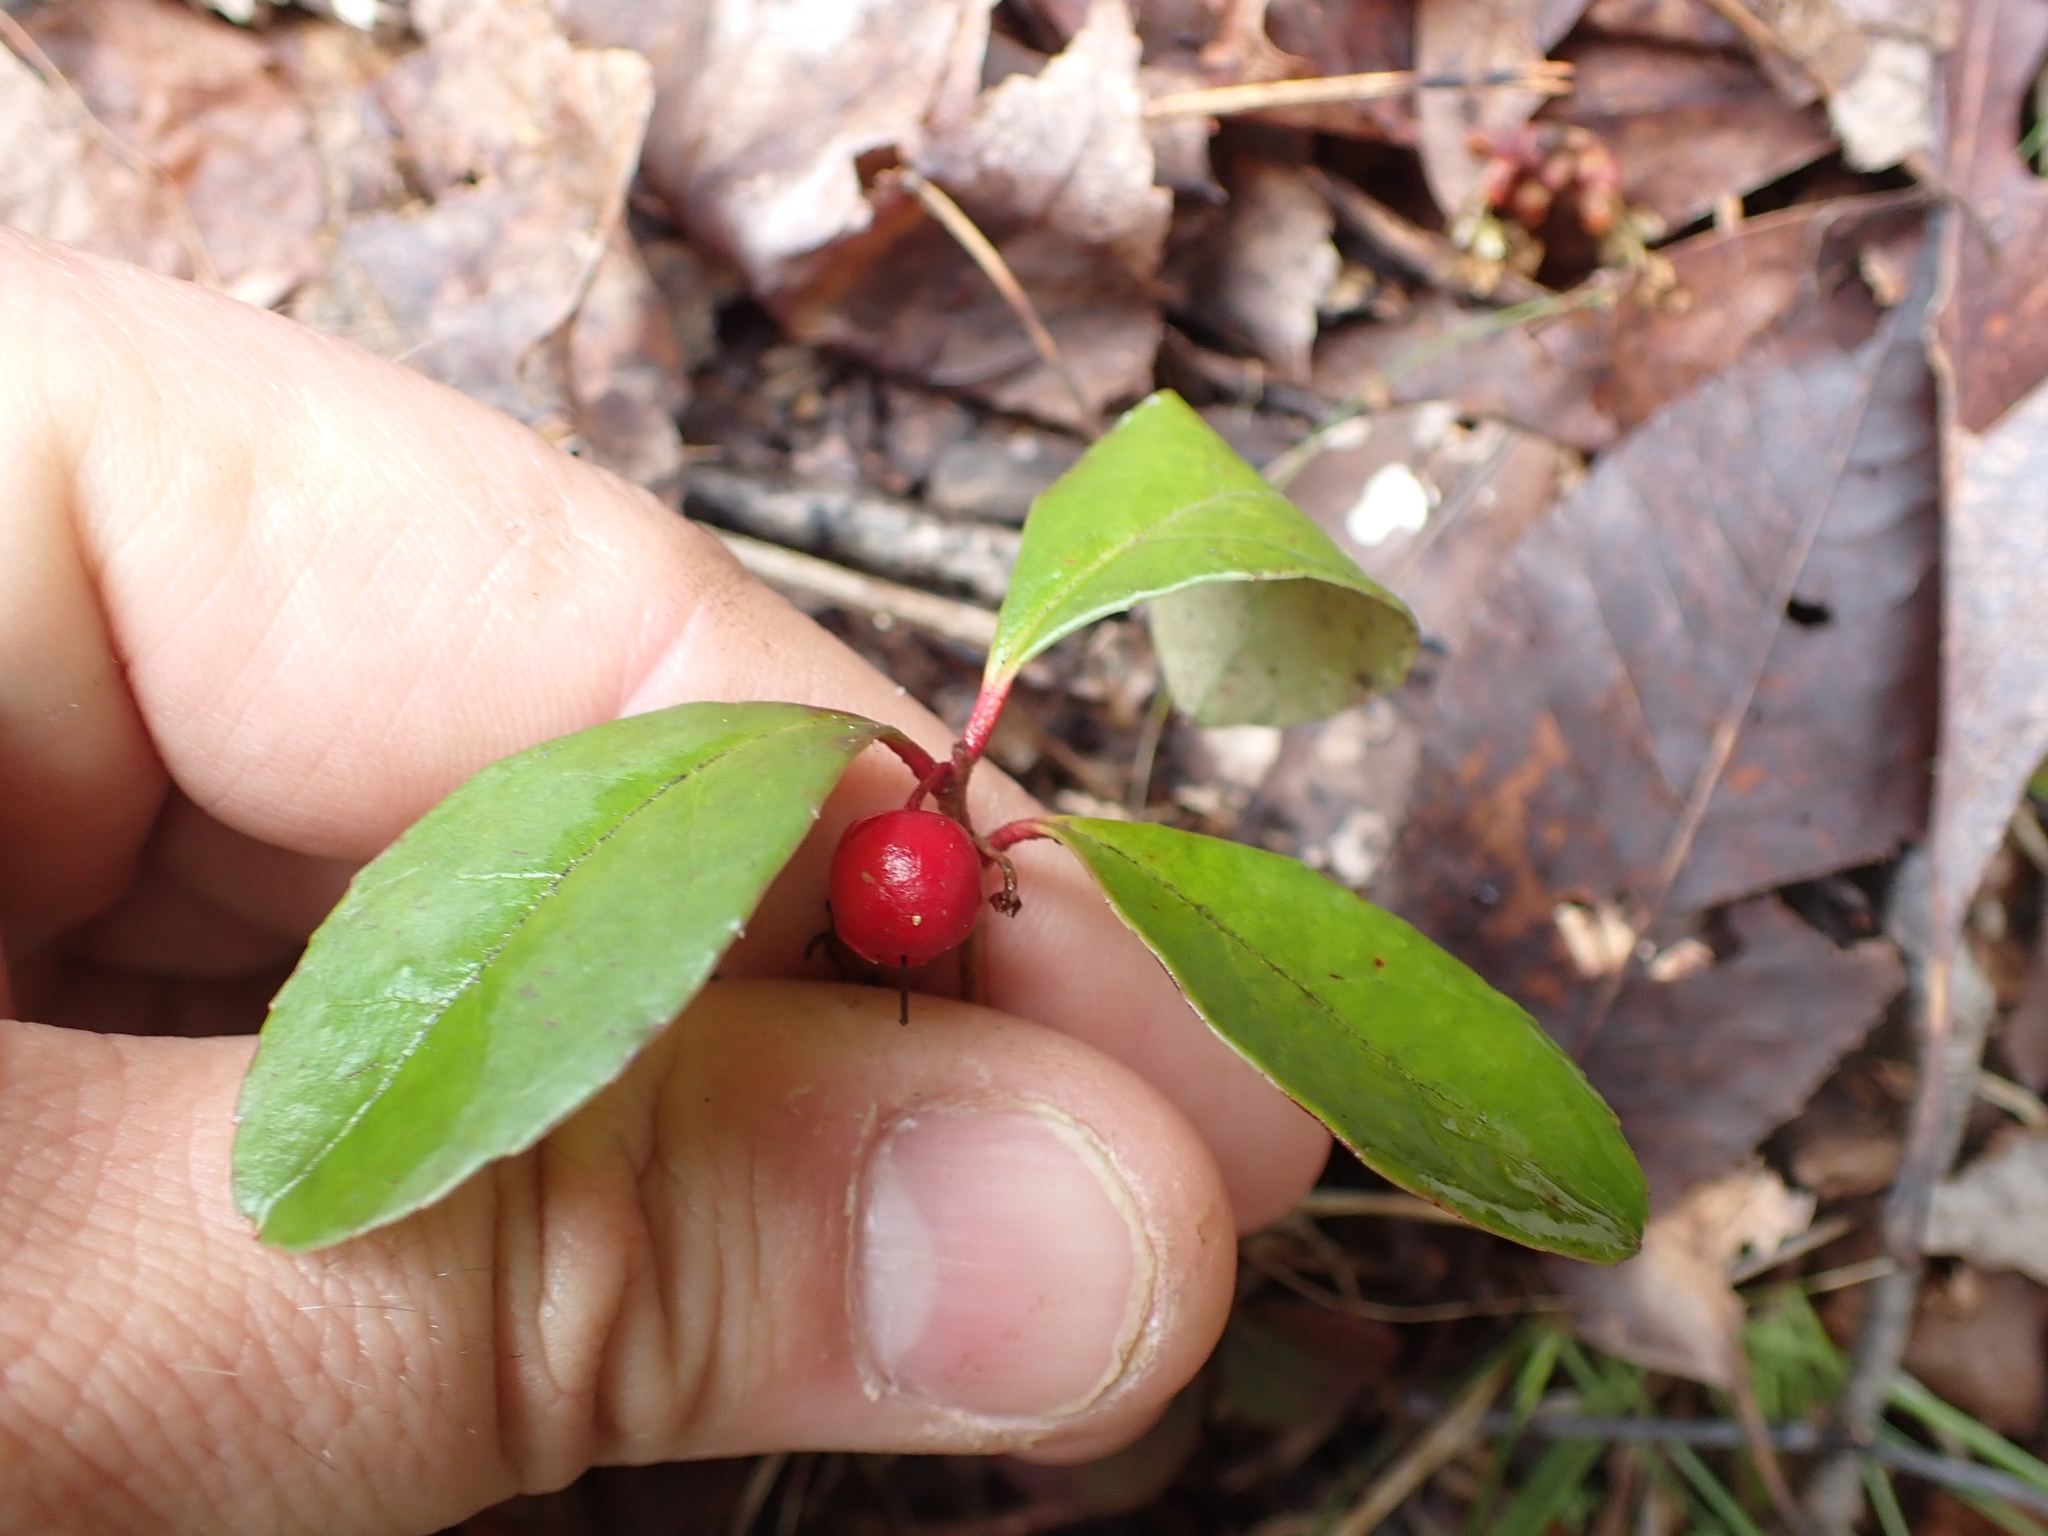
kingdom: Plantae
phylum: Tracheophyta
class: Magnoliopsida
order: Ericales
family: Ericaceae
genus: Gaultheria
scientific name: Gaultheria procumbens
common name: Checkerberry
